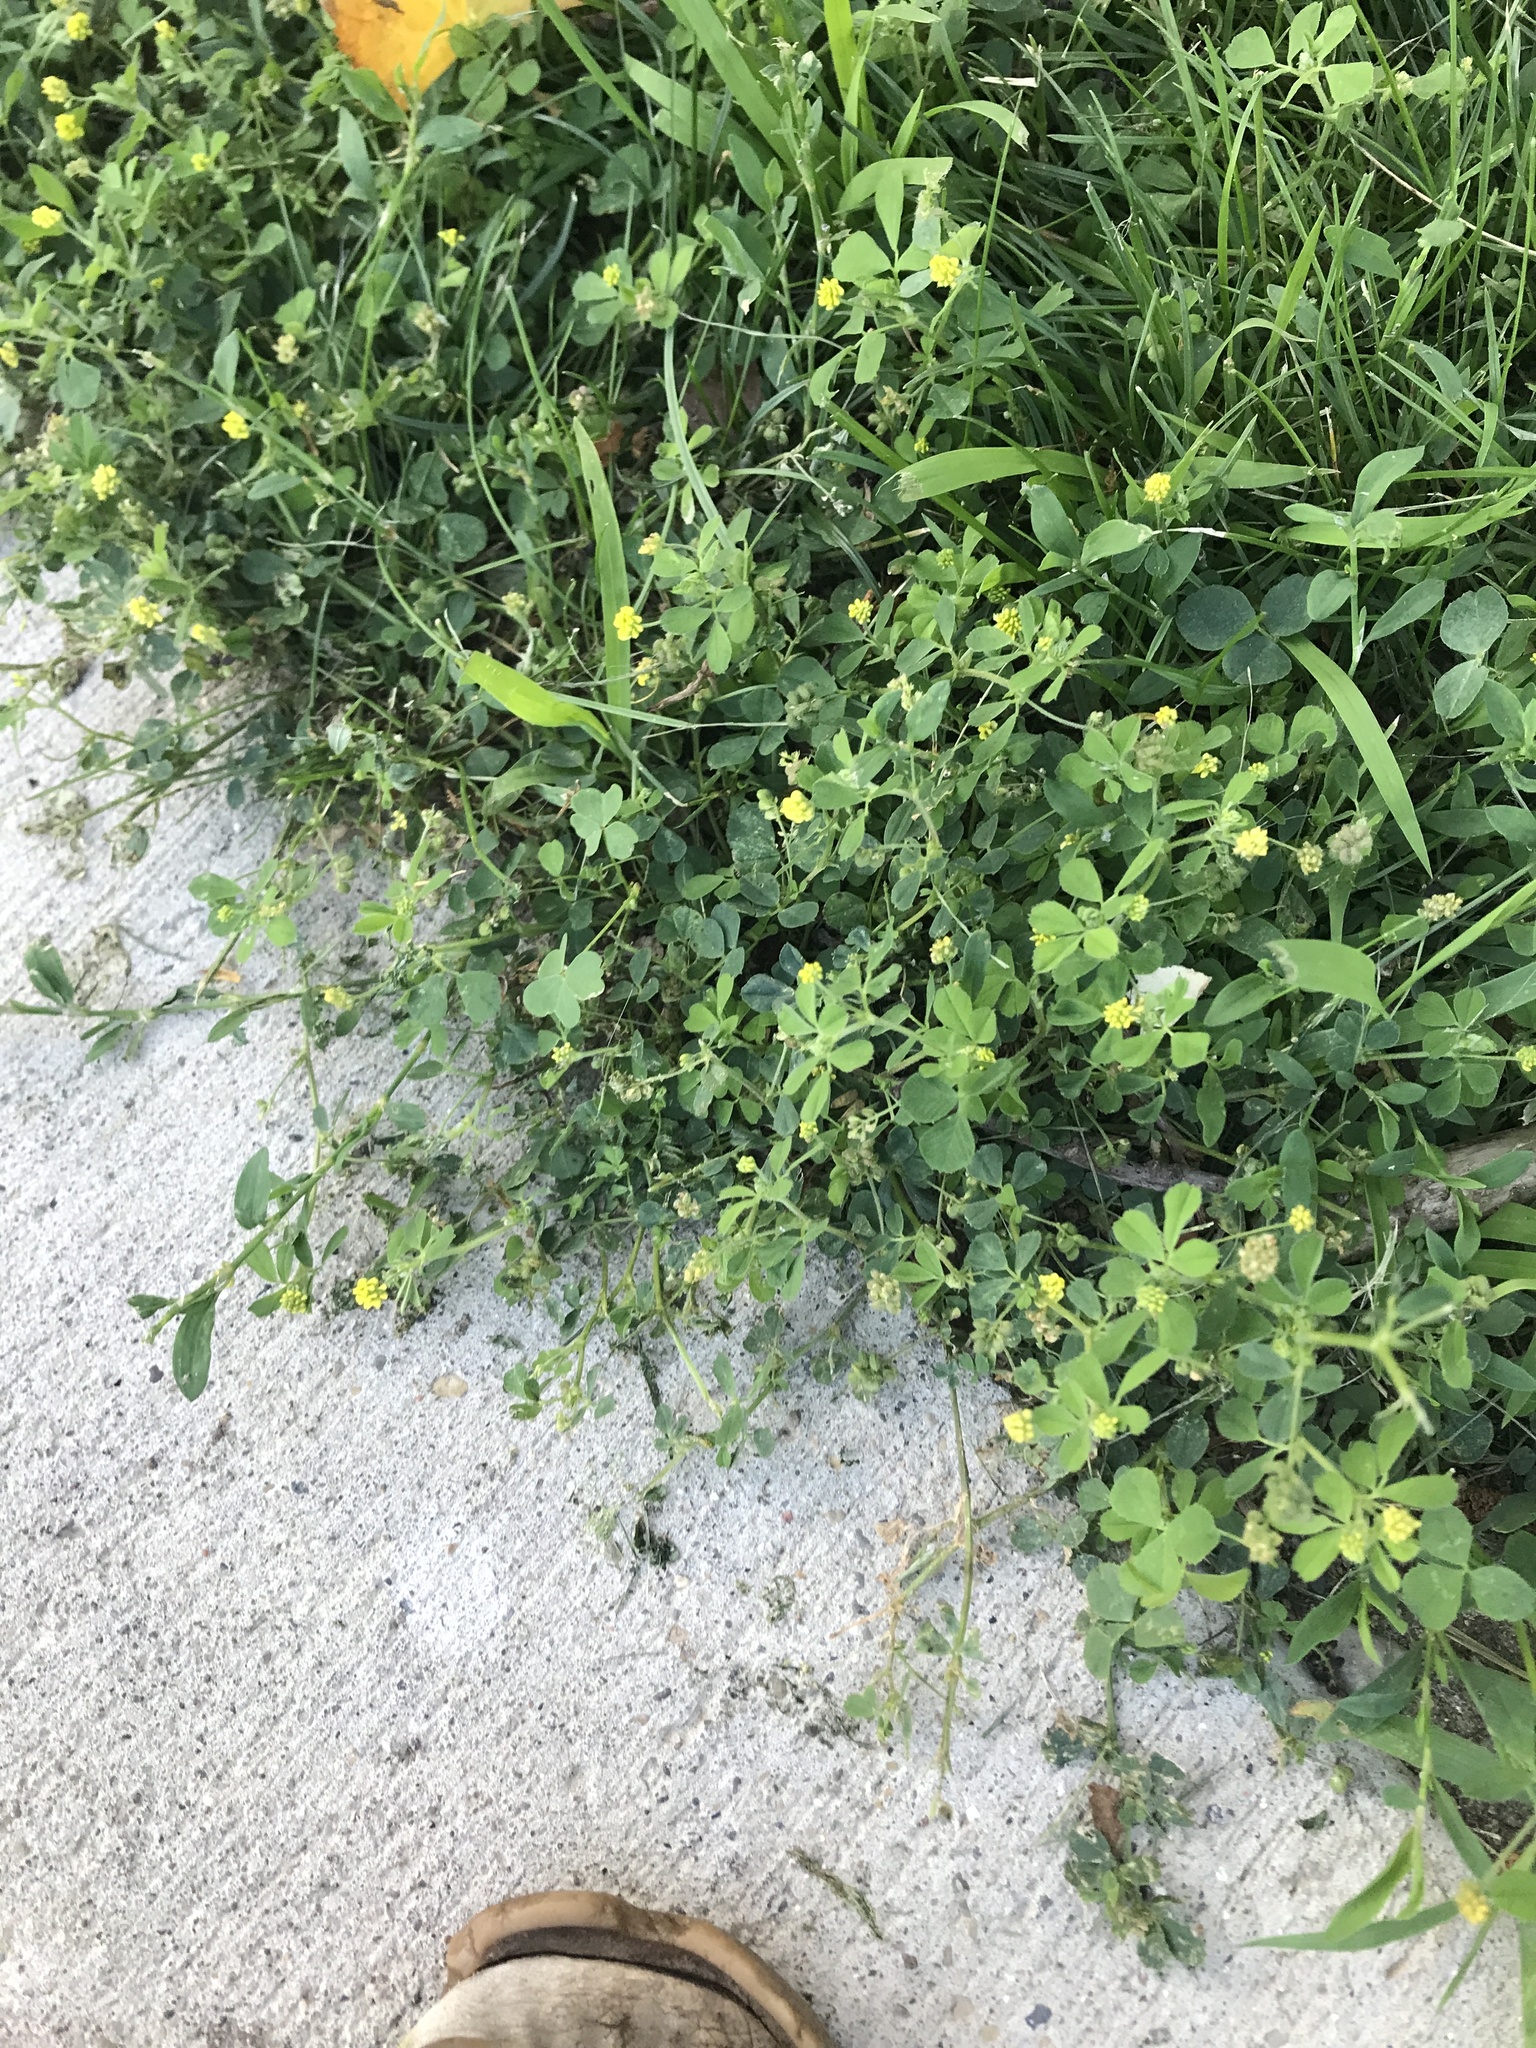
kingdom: Plantae
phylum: Tracheophyta
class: Magnoliopsida
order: Fabales
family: Fabaceae
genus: Medicago
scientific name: Medicago lupulina
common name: Black medick
